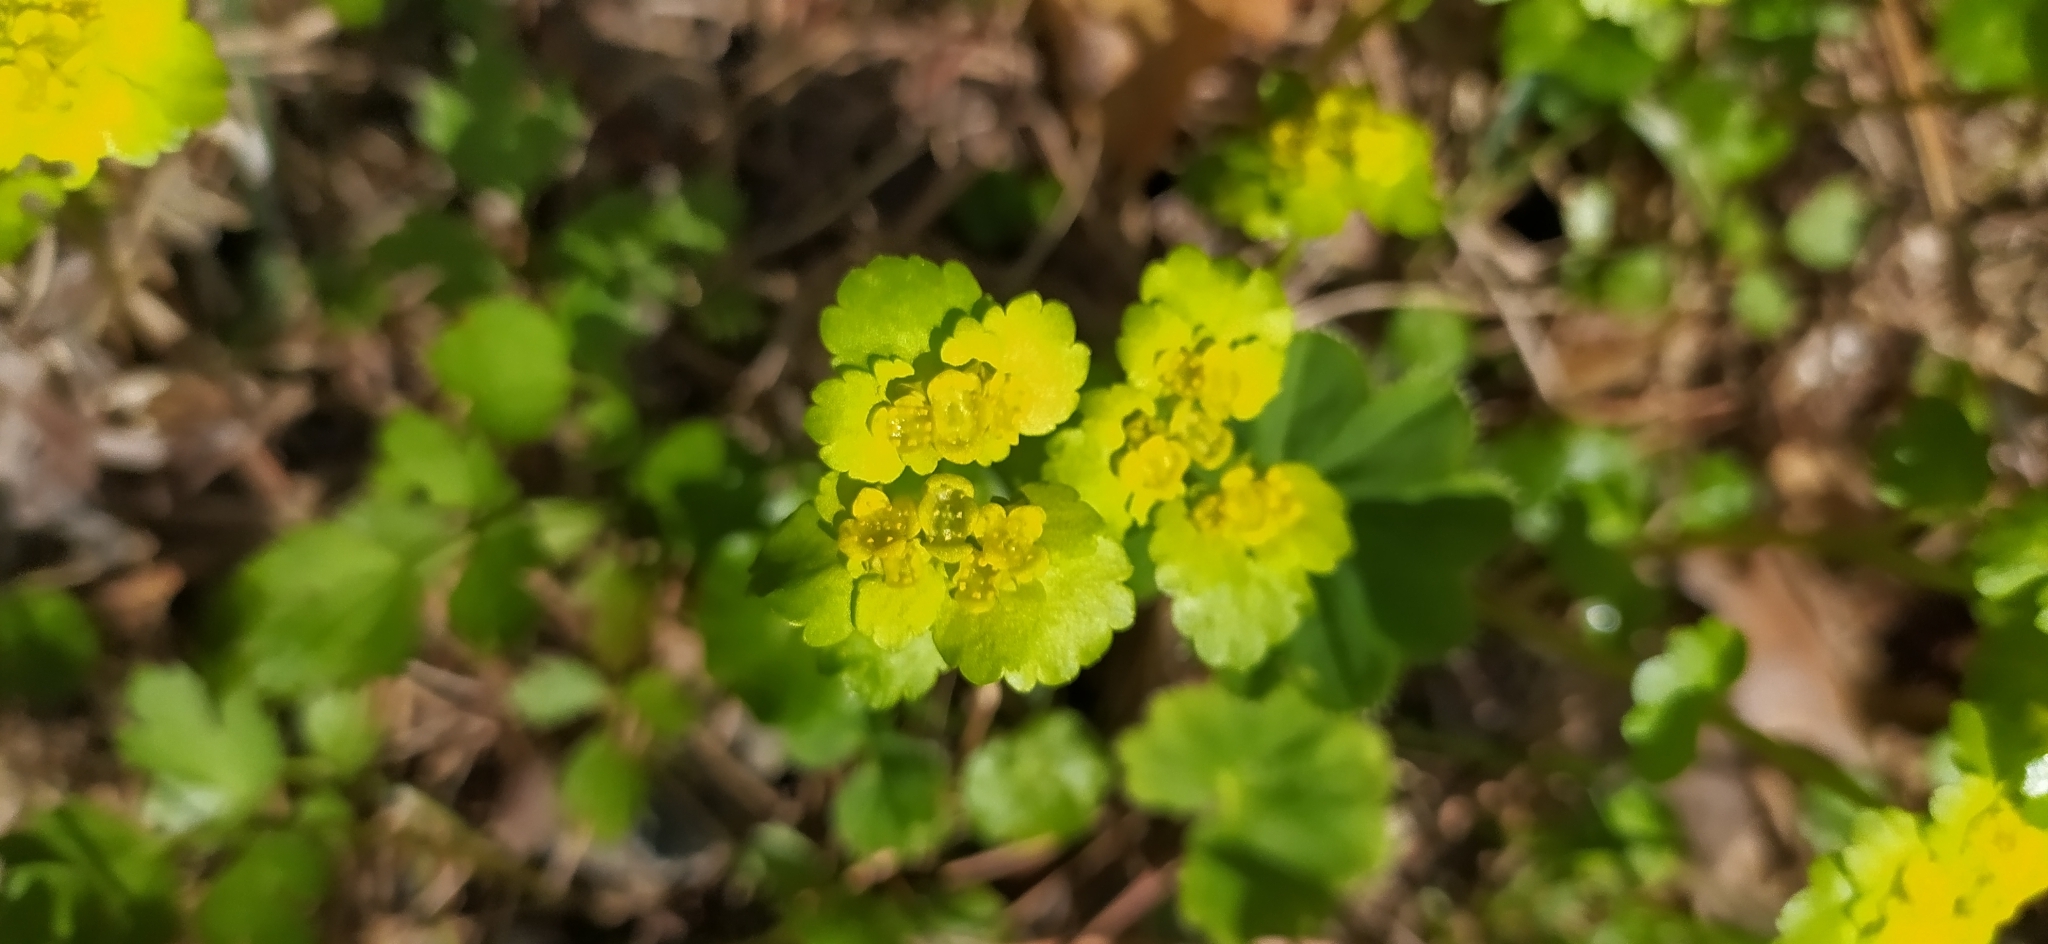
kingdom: Plantae
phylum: Tracheophyta
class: Magnoliopsida
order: Saxifragales
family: Saxifragaceae
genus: Chrysosplenium
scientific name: Chrysosplenium alternifolium
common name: Alternate-leaved golden-saxifrage
